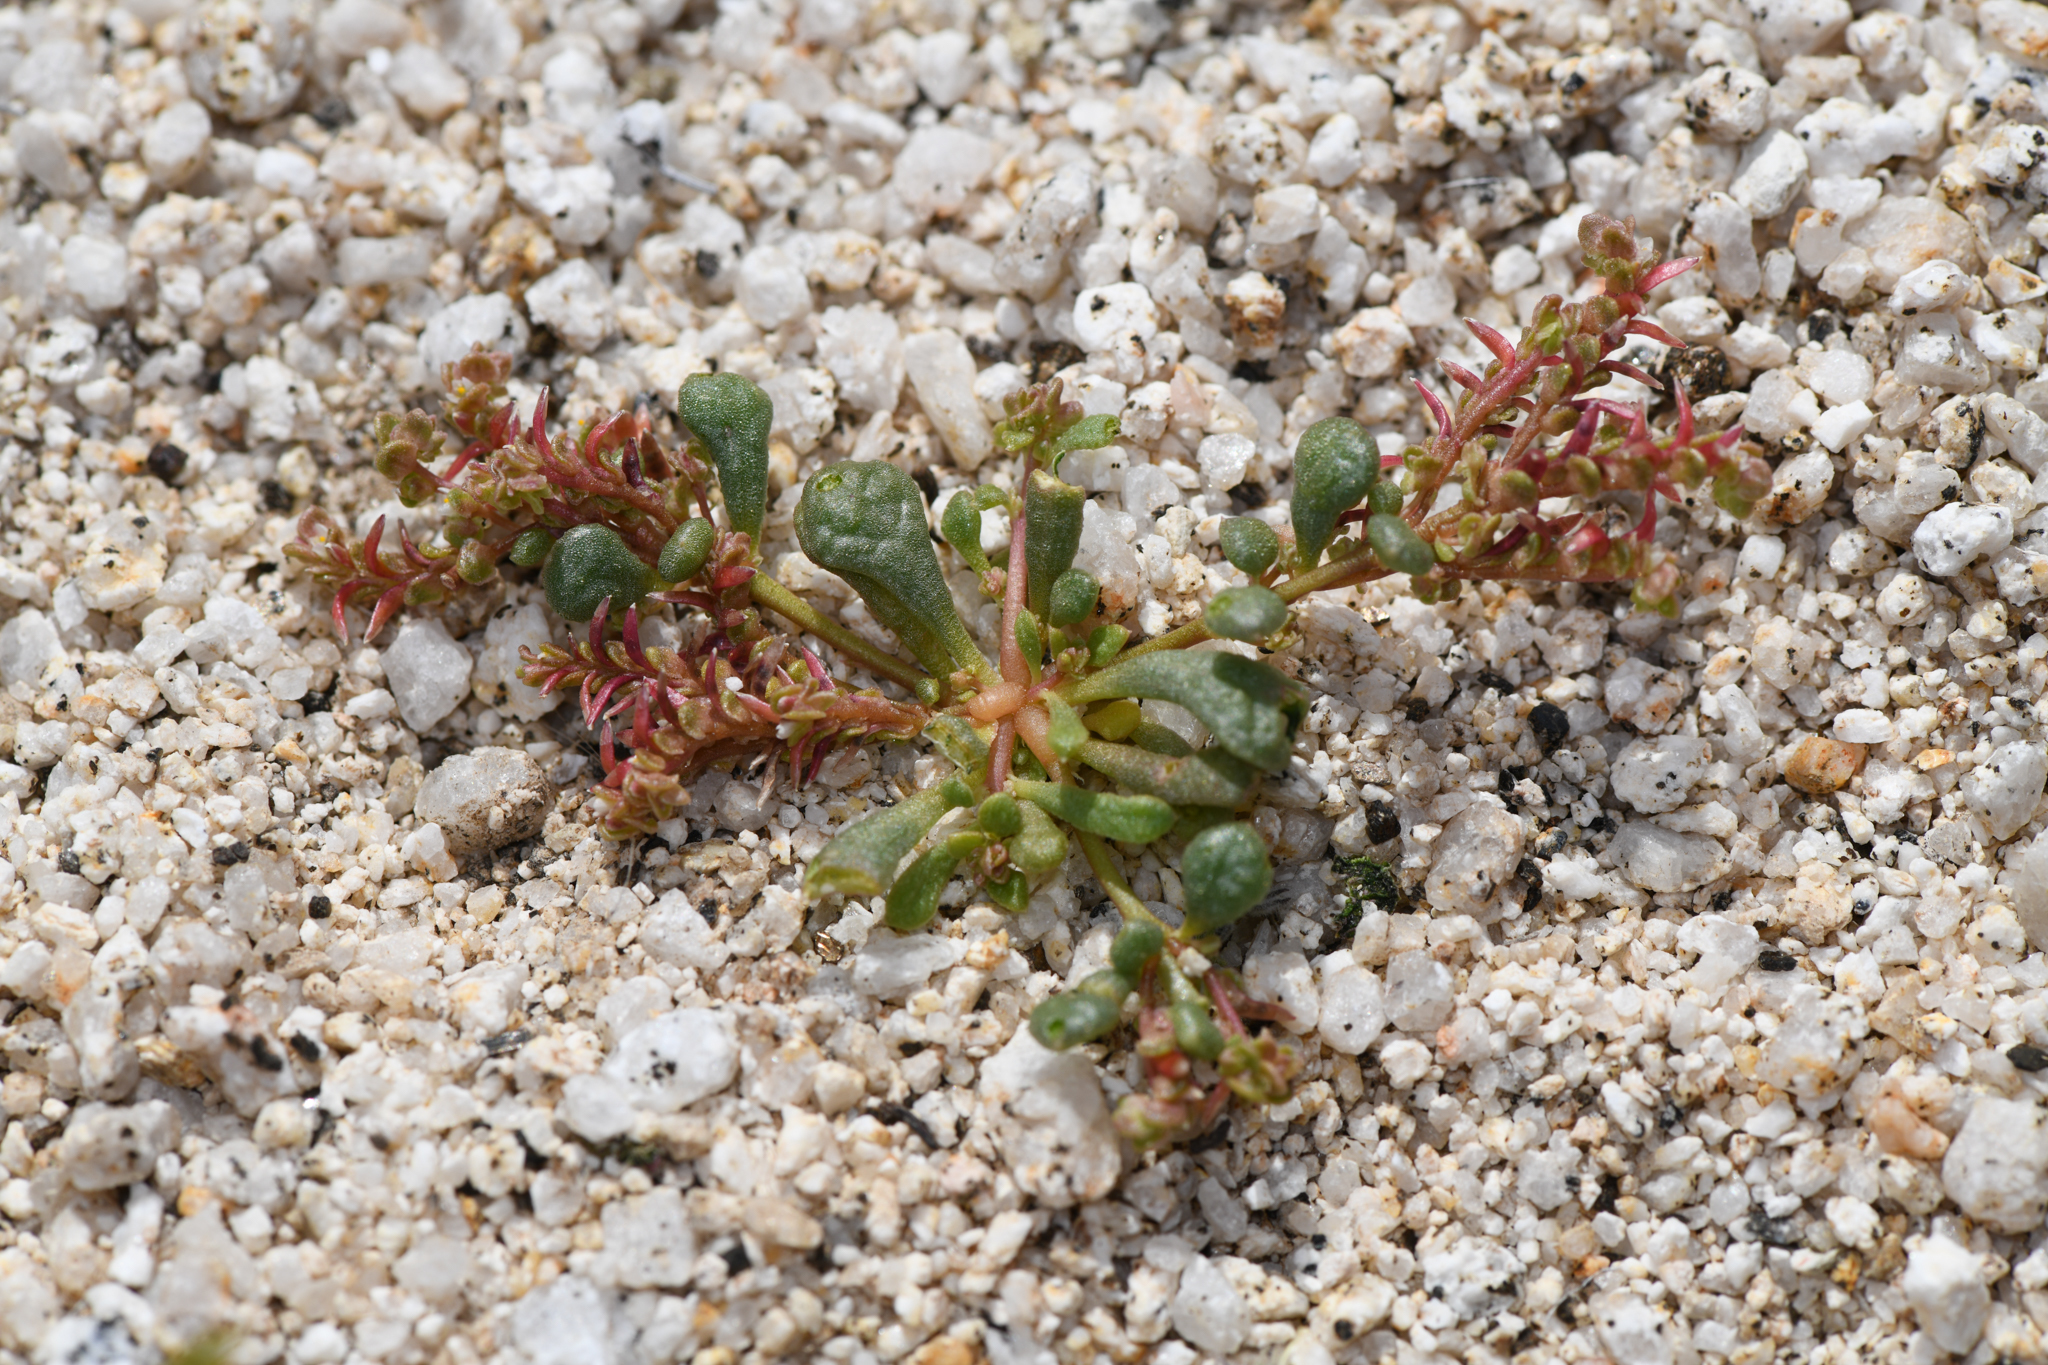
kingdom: Plantae
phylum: Tracheophyta
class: Magnoliopsida
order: Caryophyllales
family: Montiaceae
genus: Calyptridium
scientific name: Calyptridium monandrum
